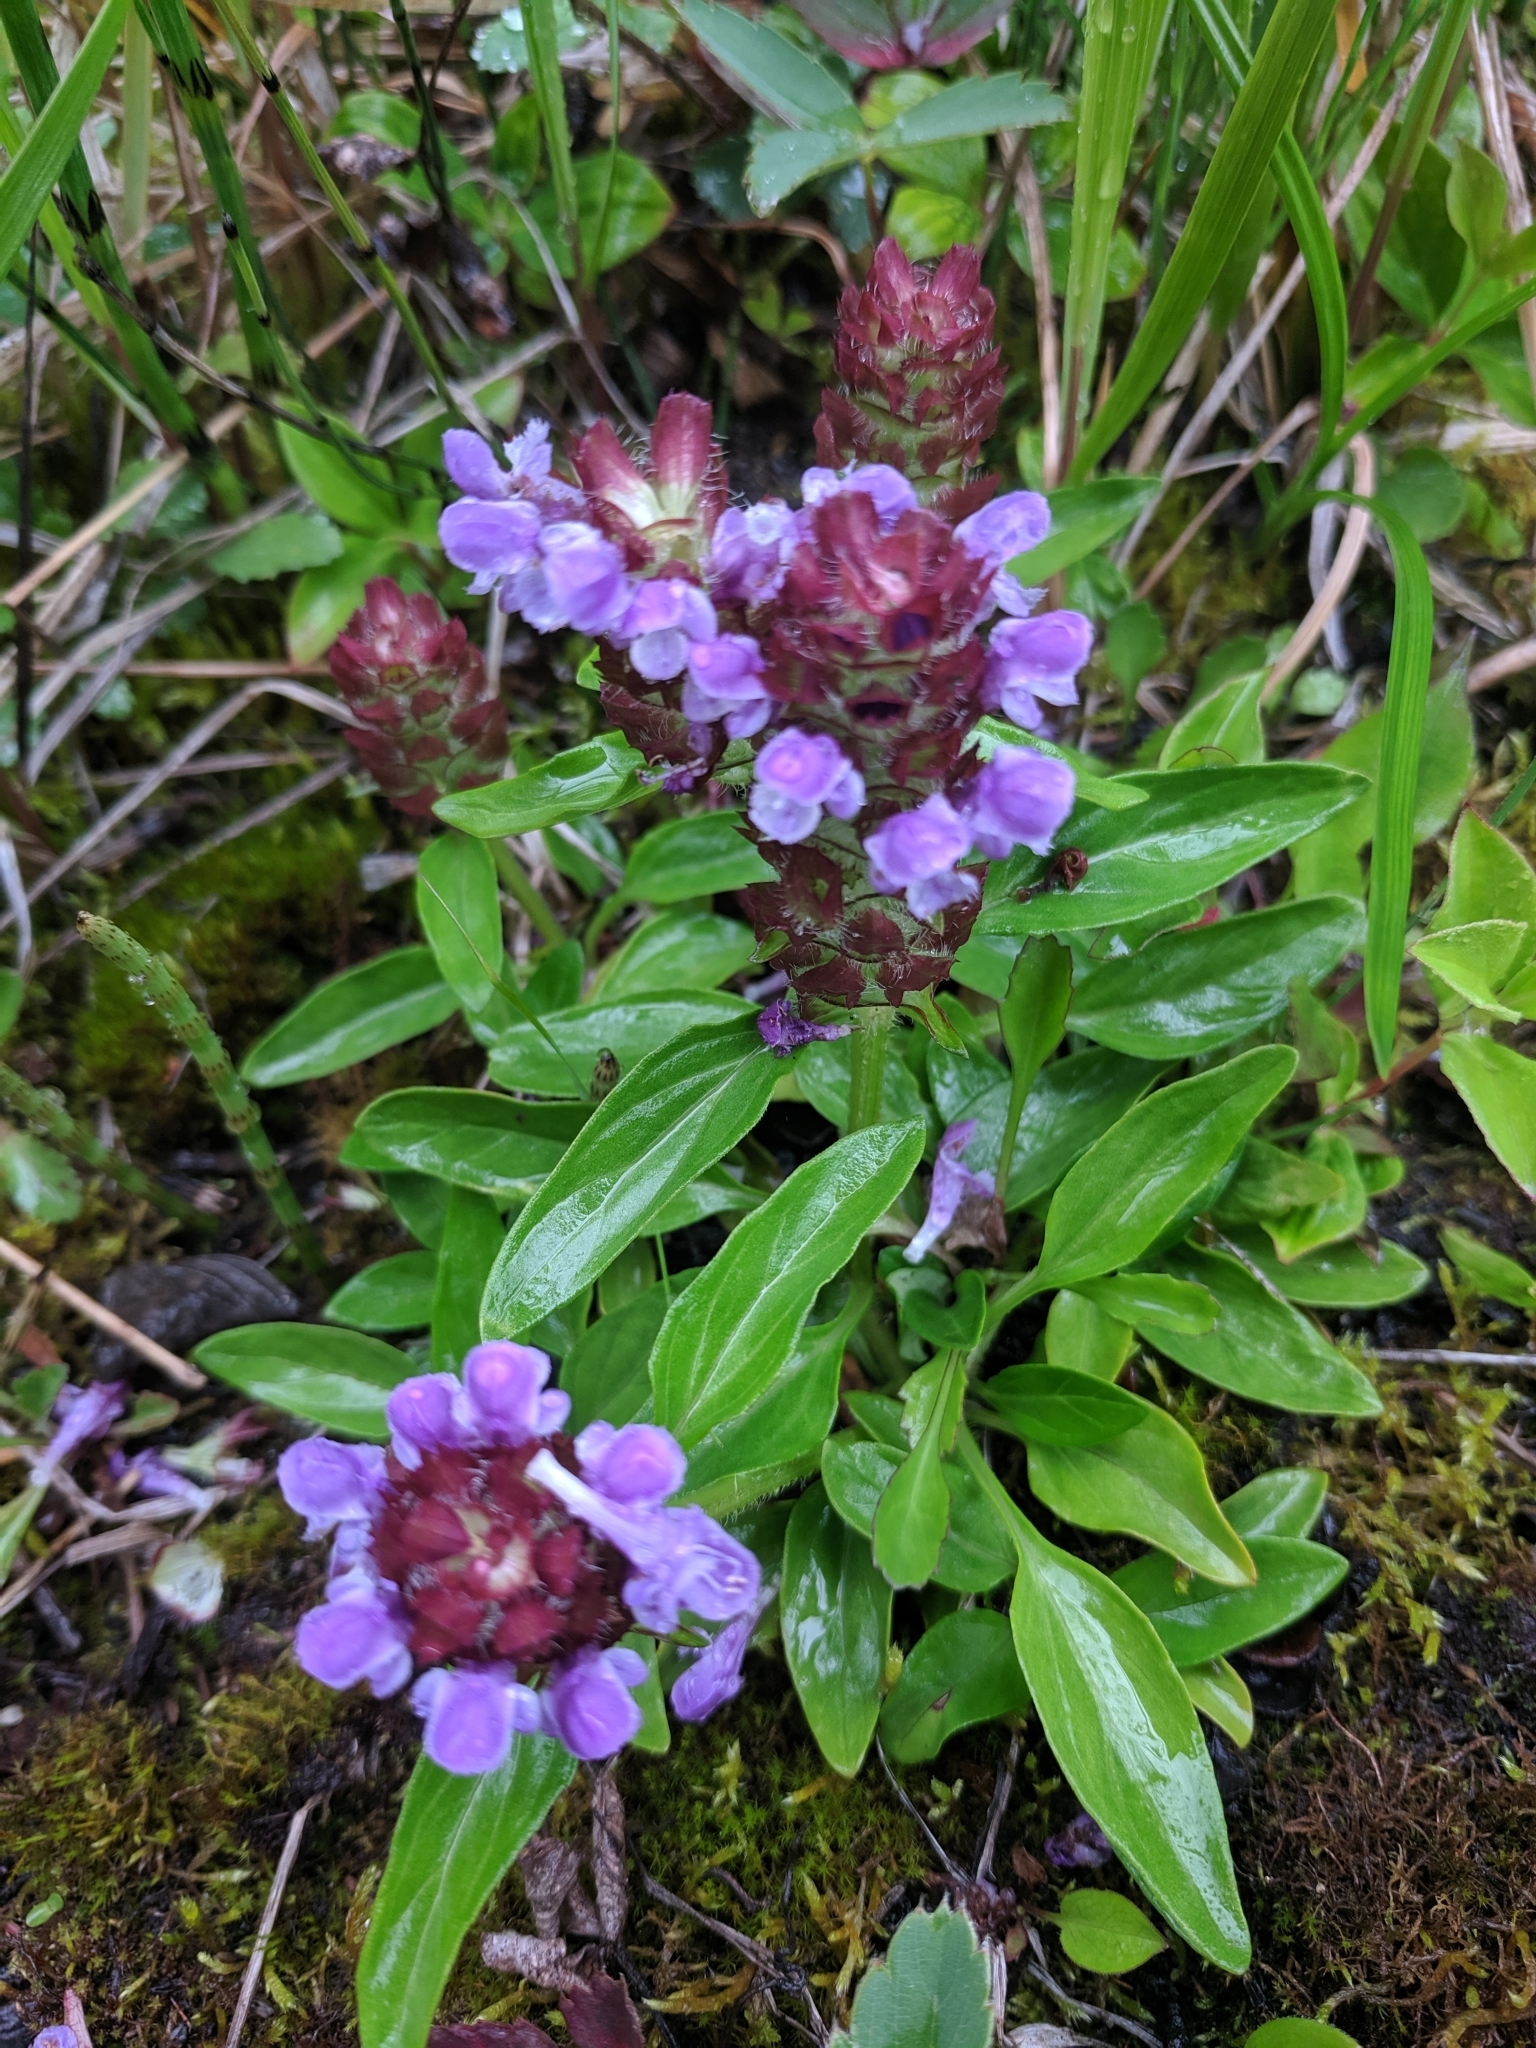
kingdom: Plantae
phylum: Tracheophyta
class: Magnoliopsida
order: Lamiales
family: Lamiaceae
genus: Prunella
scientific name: Prunella vulgaris
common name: Heal-all
